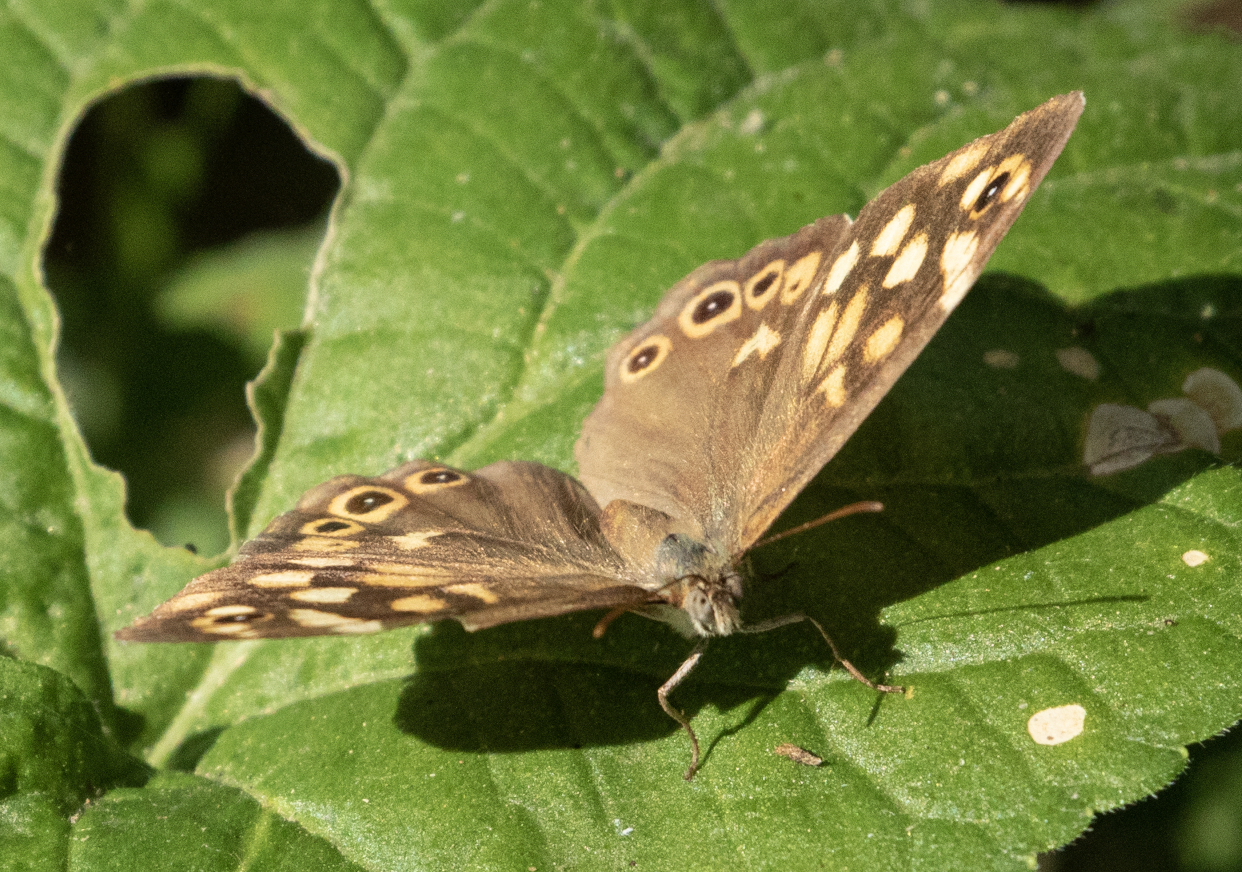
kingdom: Animalia
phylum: Arthropoda
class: Insecta
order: Lepidoptera
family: Nymphalidae
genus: Pararge
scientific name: Pararge aegeria
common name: Speckled wood
